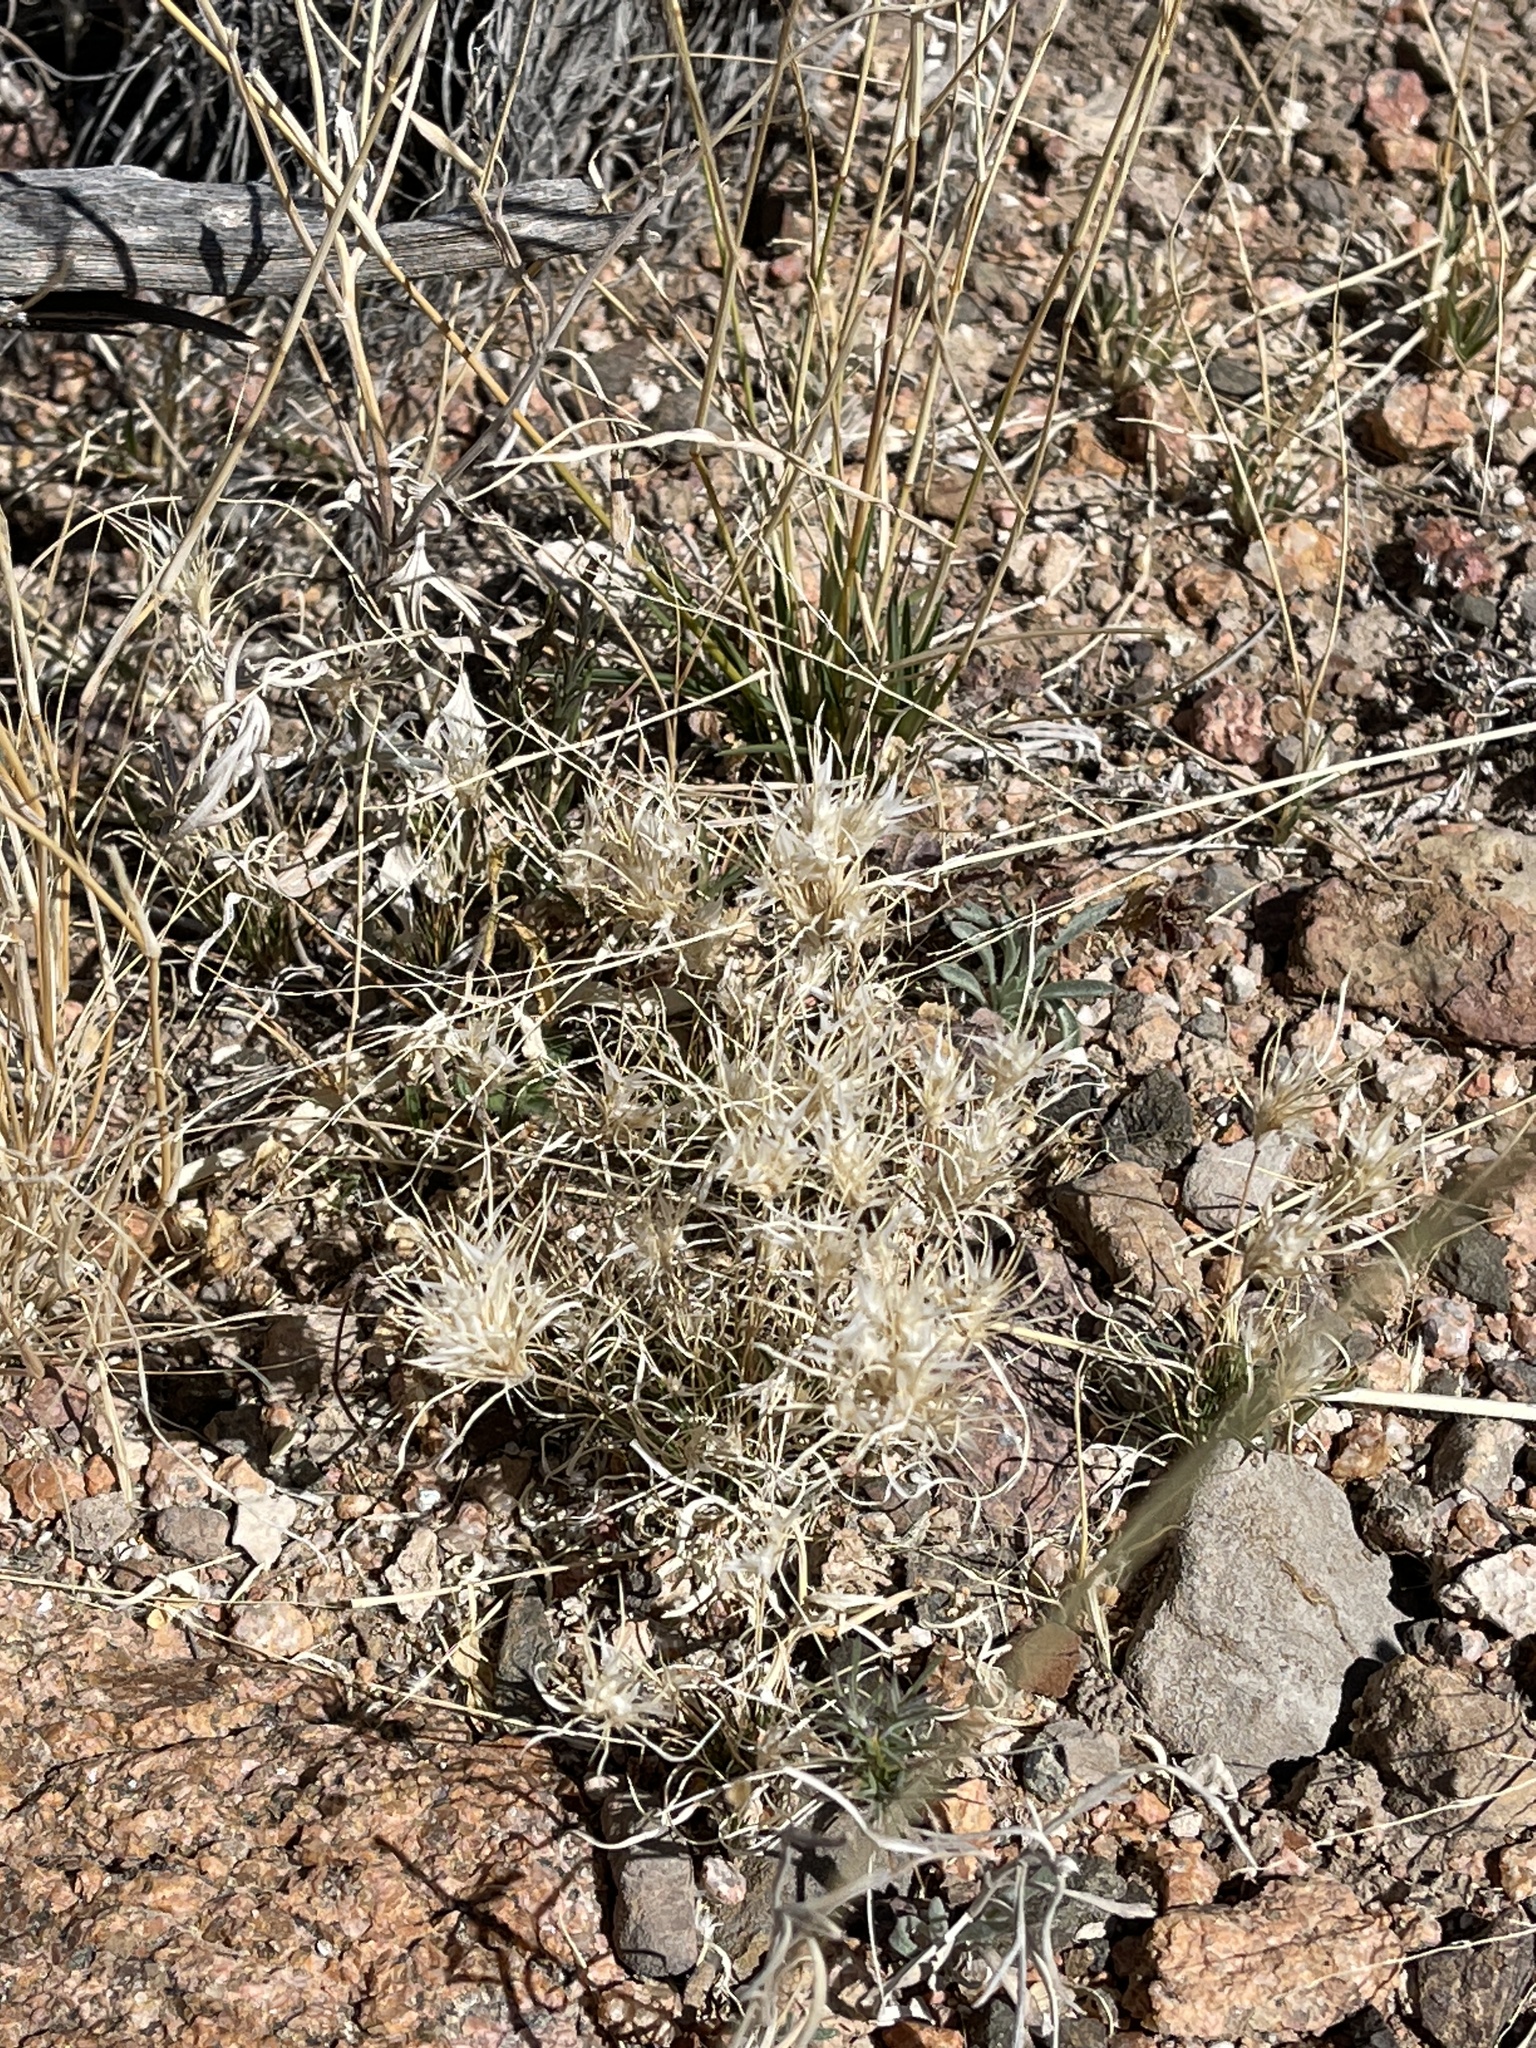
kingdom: Plantae
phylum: Tracheophyta
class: Liliopsida
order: Poales
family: Poaceae
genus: Dasyochloa
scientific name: Dasyochloa pulchella
